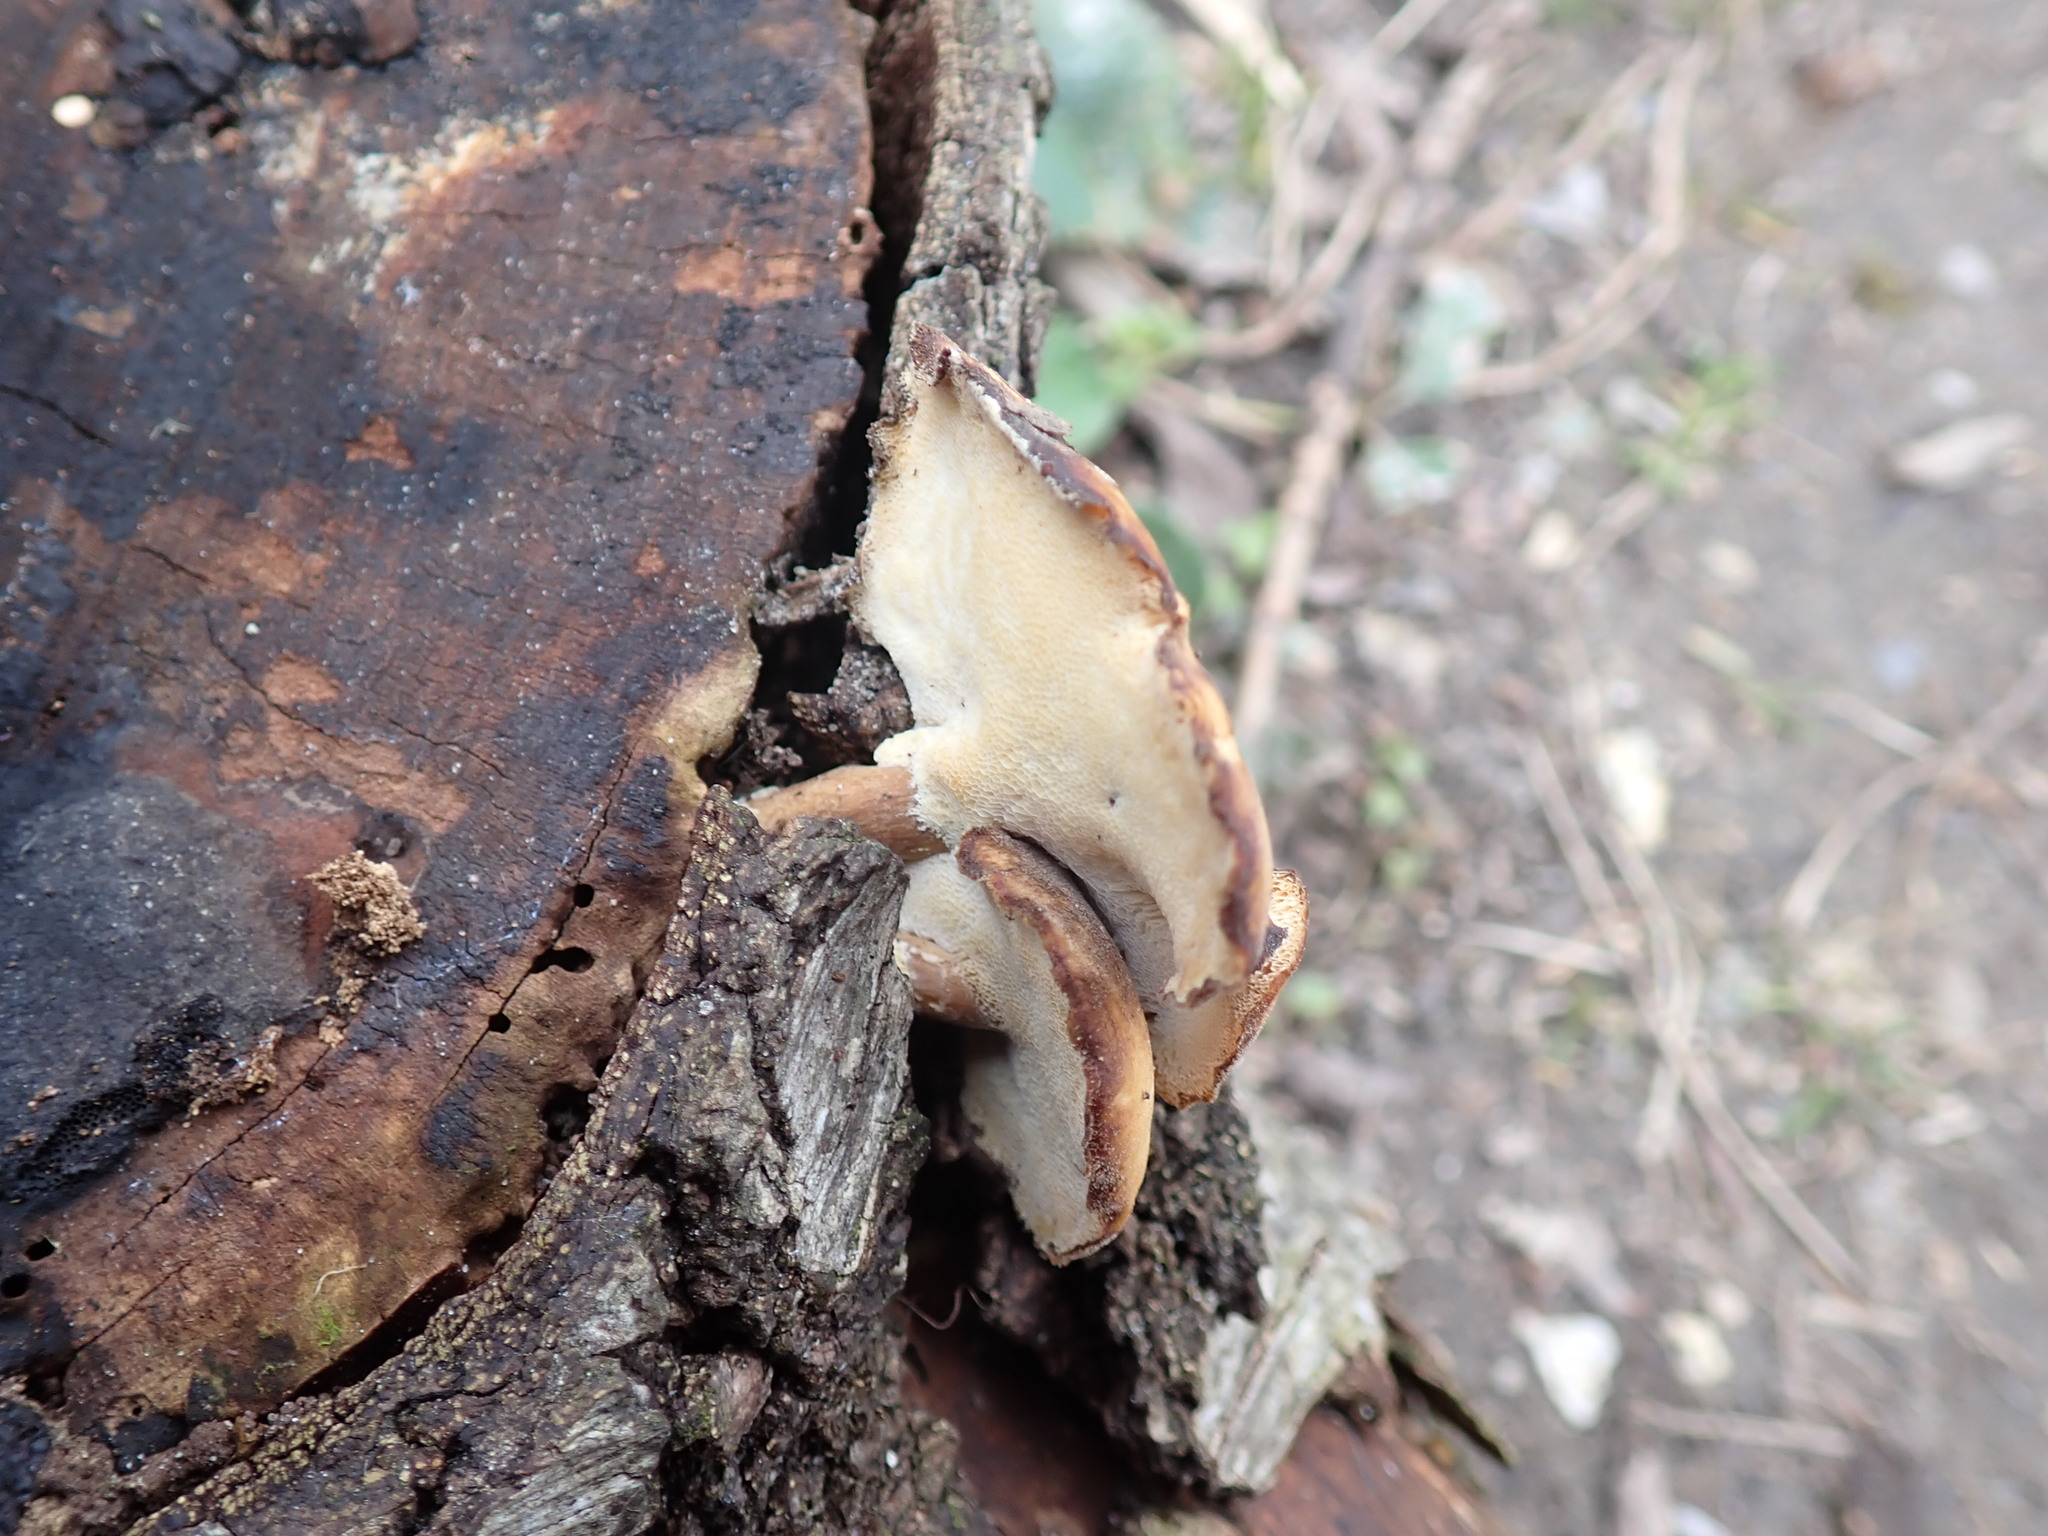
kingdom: Fungi
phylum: Basidiomycota
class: Agaricomycetes
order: Polyporales
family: Polyporaceae
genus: Lentinus
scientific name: Lentinus brumalis
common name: Winter polypore
